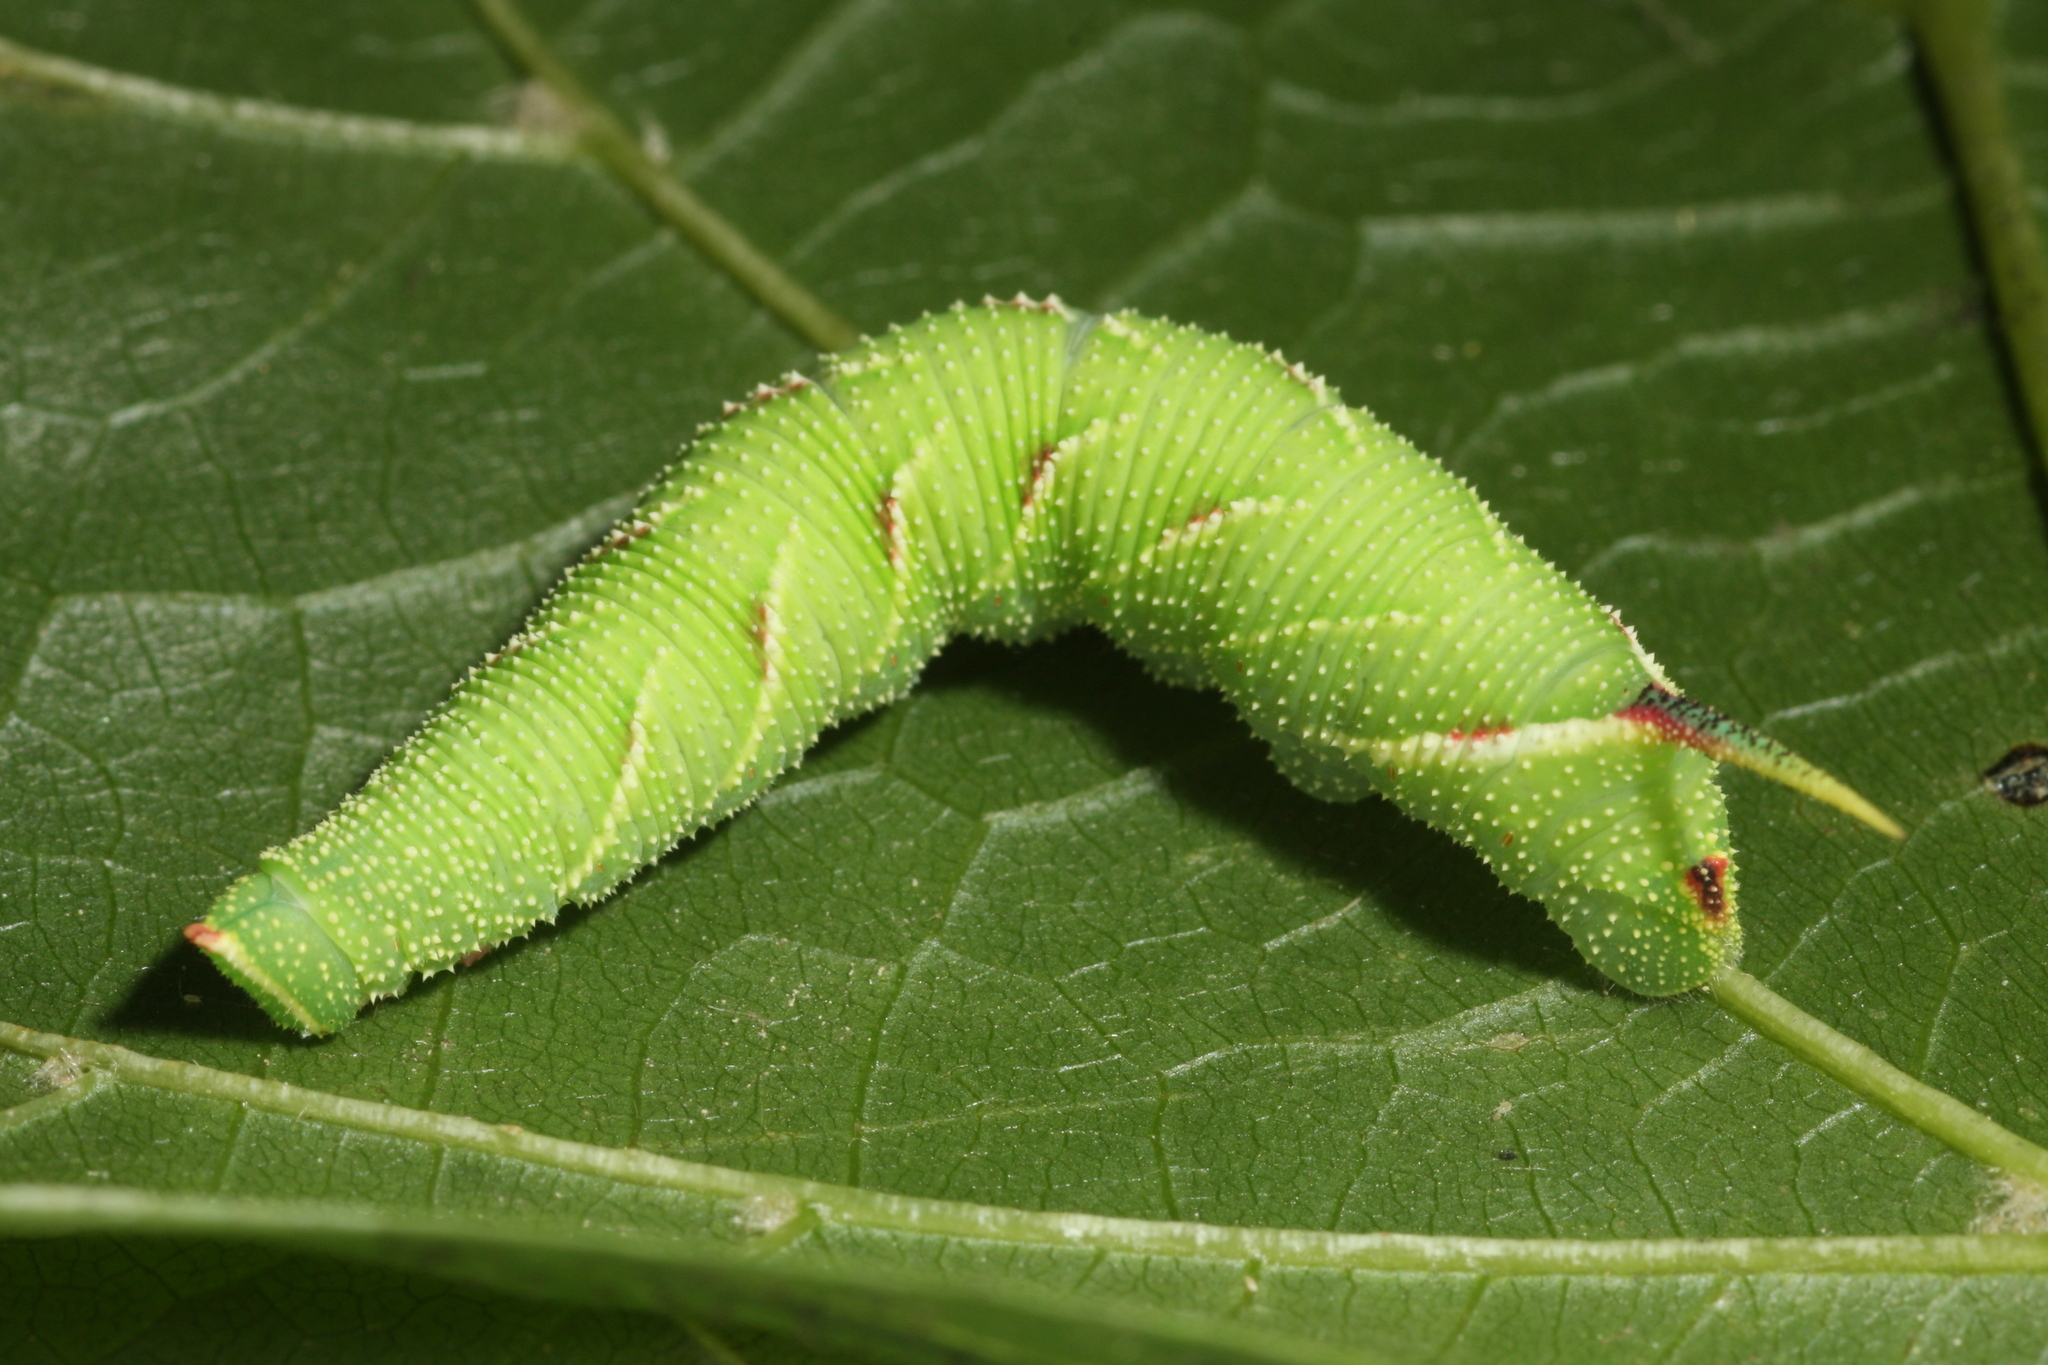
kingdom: Animalia
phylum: Arthropoda
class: Insecta
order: Lepidoptera
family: Sphingidae
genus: Mimas
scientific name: Mimas tiliae
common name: Lime hawk-moth
